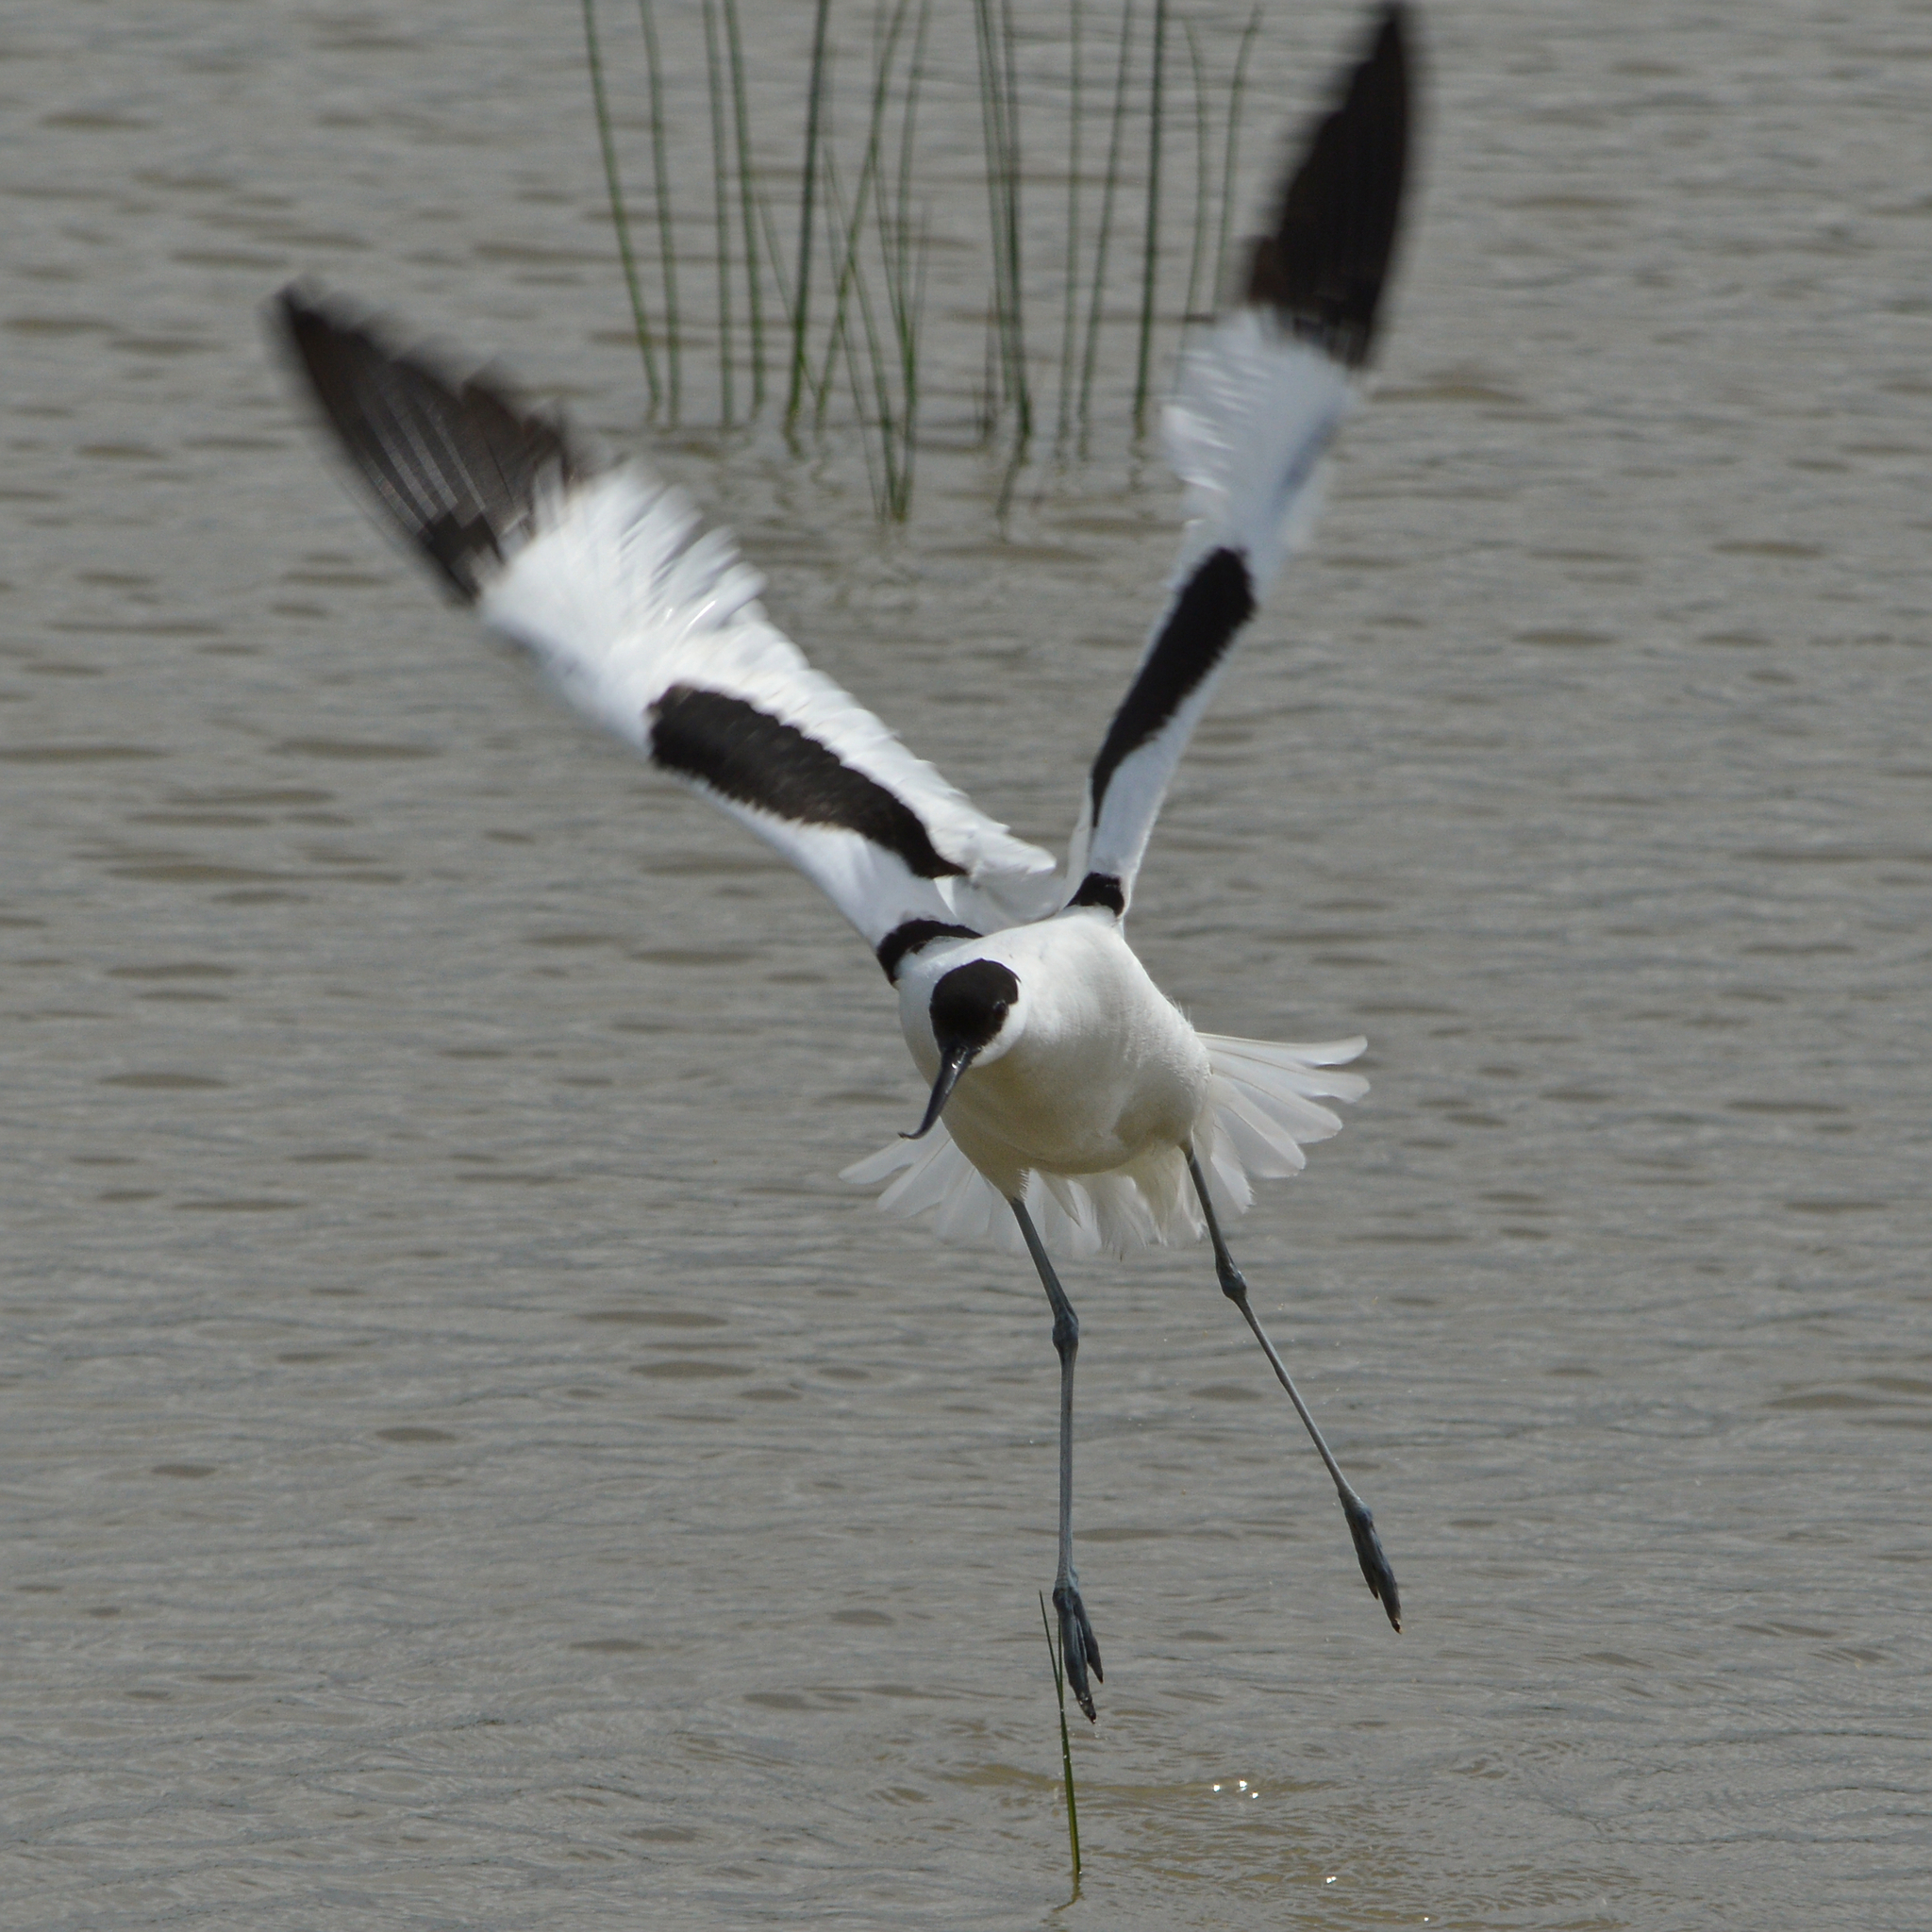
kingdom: Animalia
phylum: Chordata
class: Aves
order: Charadriiformes
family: Recurvirostridae
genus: Recurvirostra
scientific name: Recurvirostra avosetta
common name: Pied avocet
